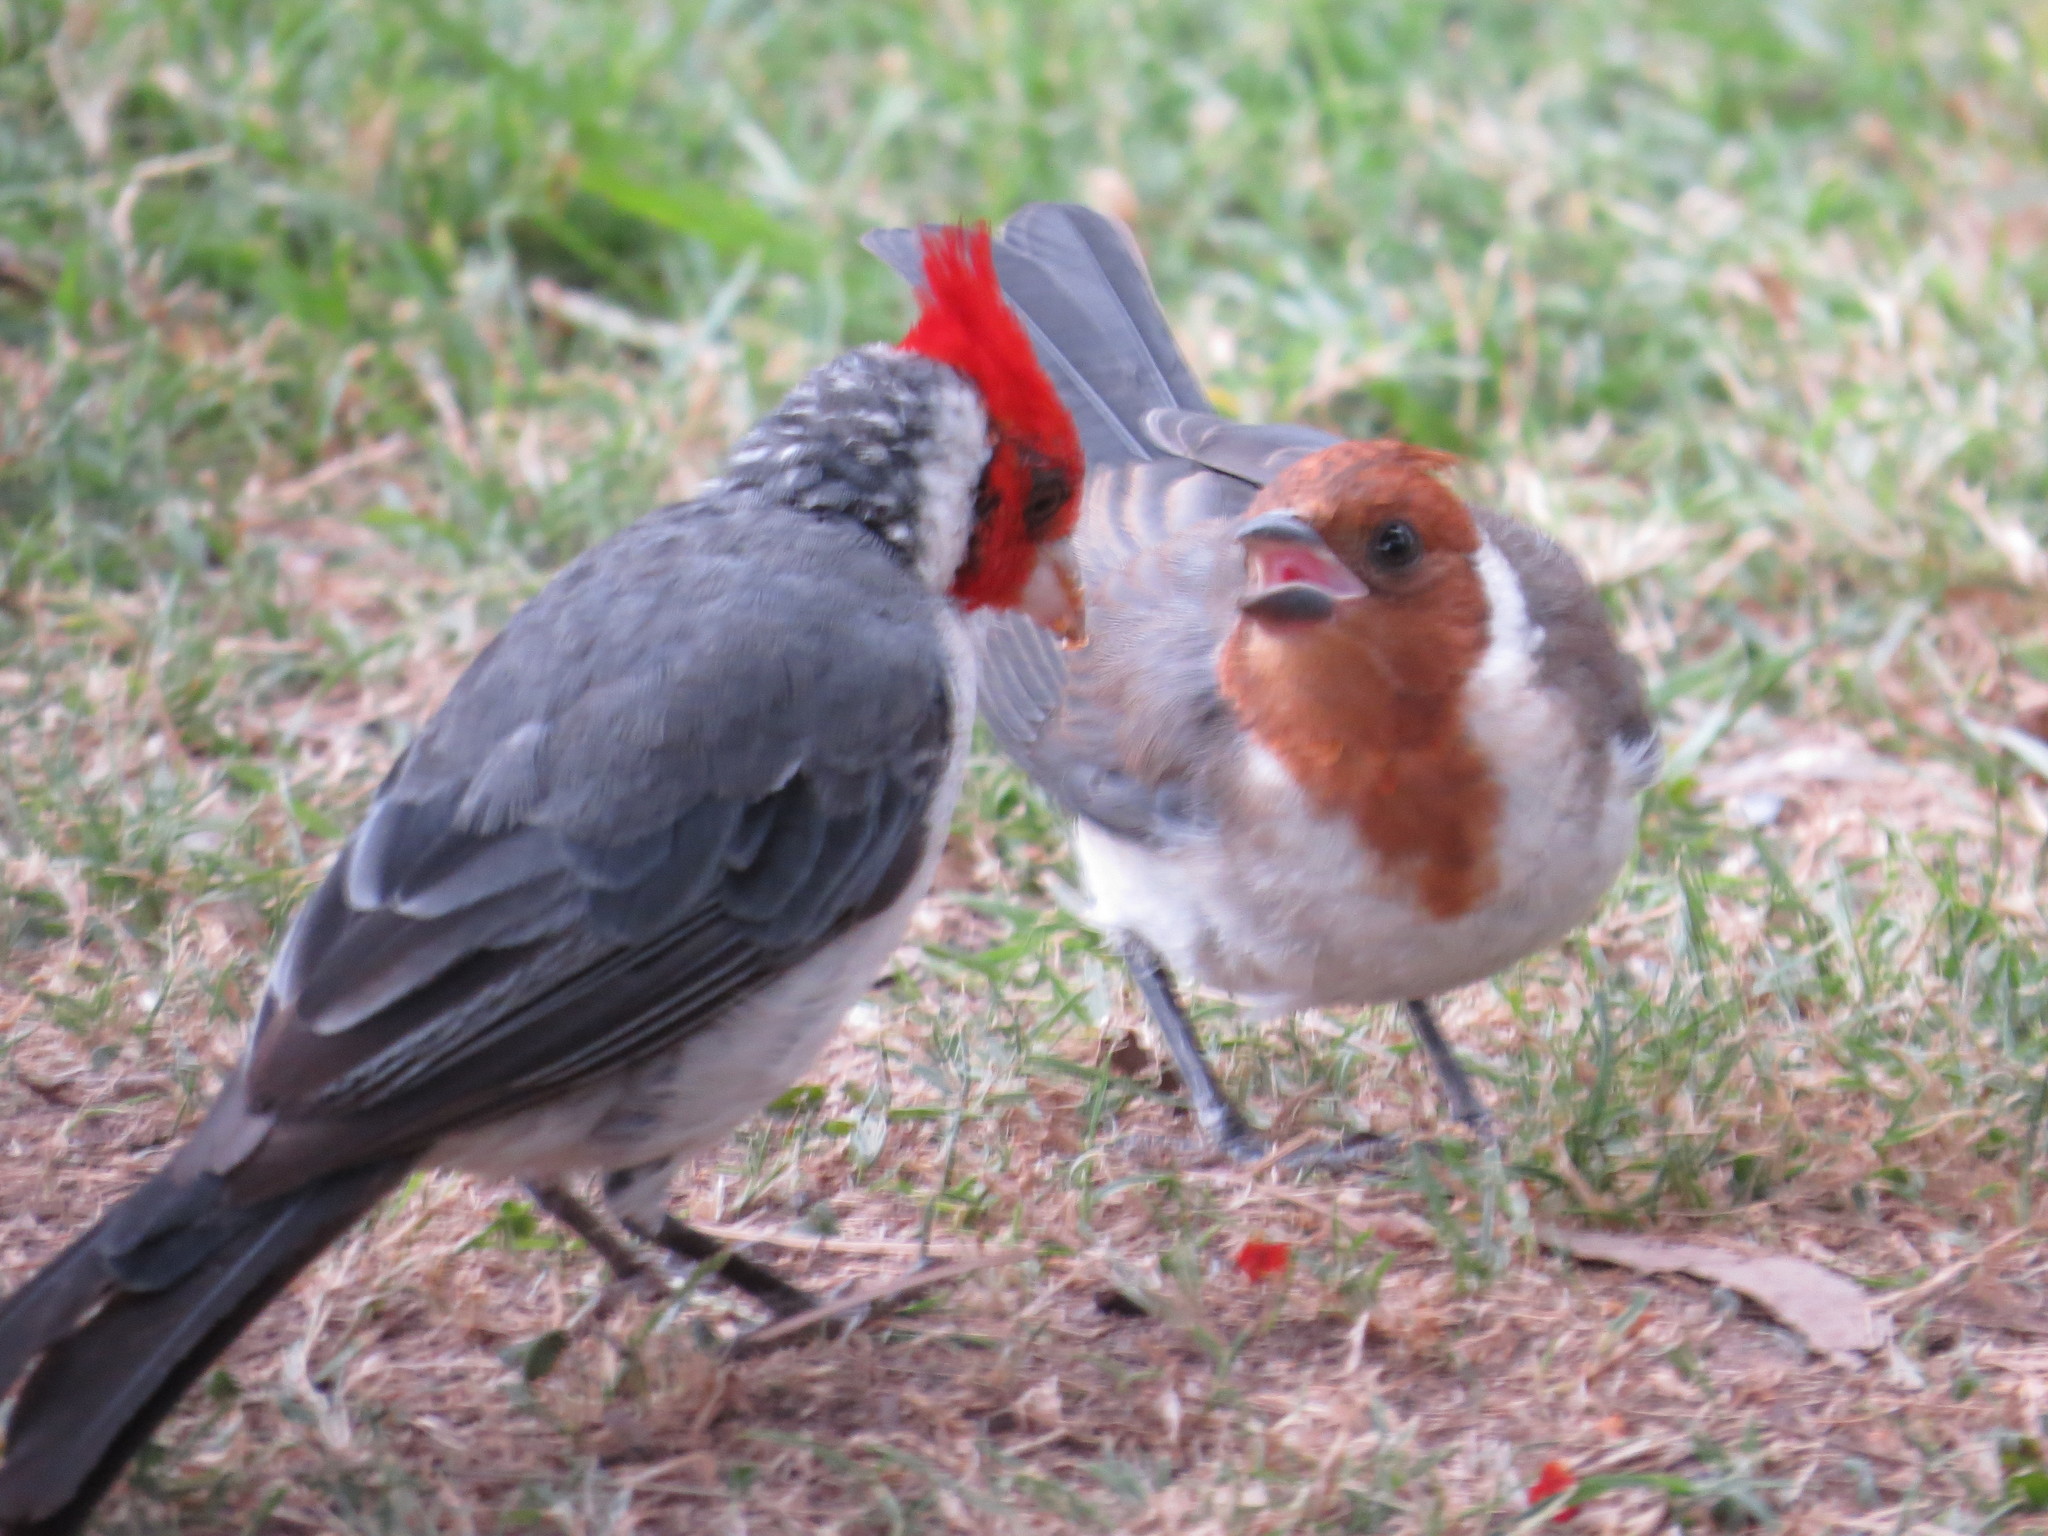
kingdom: Animalia
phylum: Chordata
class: Aves
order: Passeriformes
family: Thraupidae
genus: Paroaria
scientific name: Paroaria coronata
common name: Red-crested cardinal
